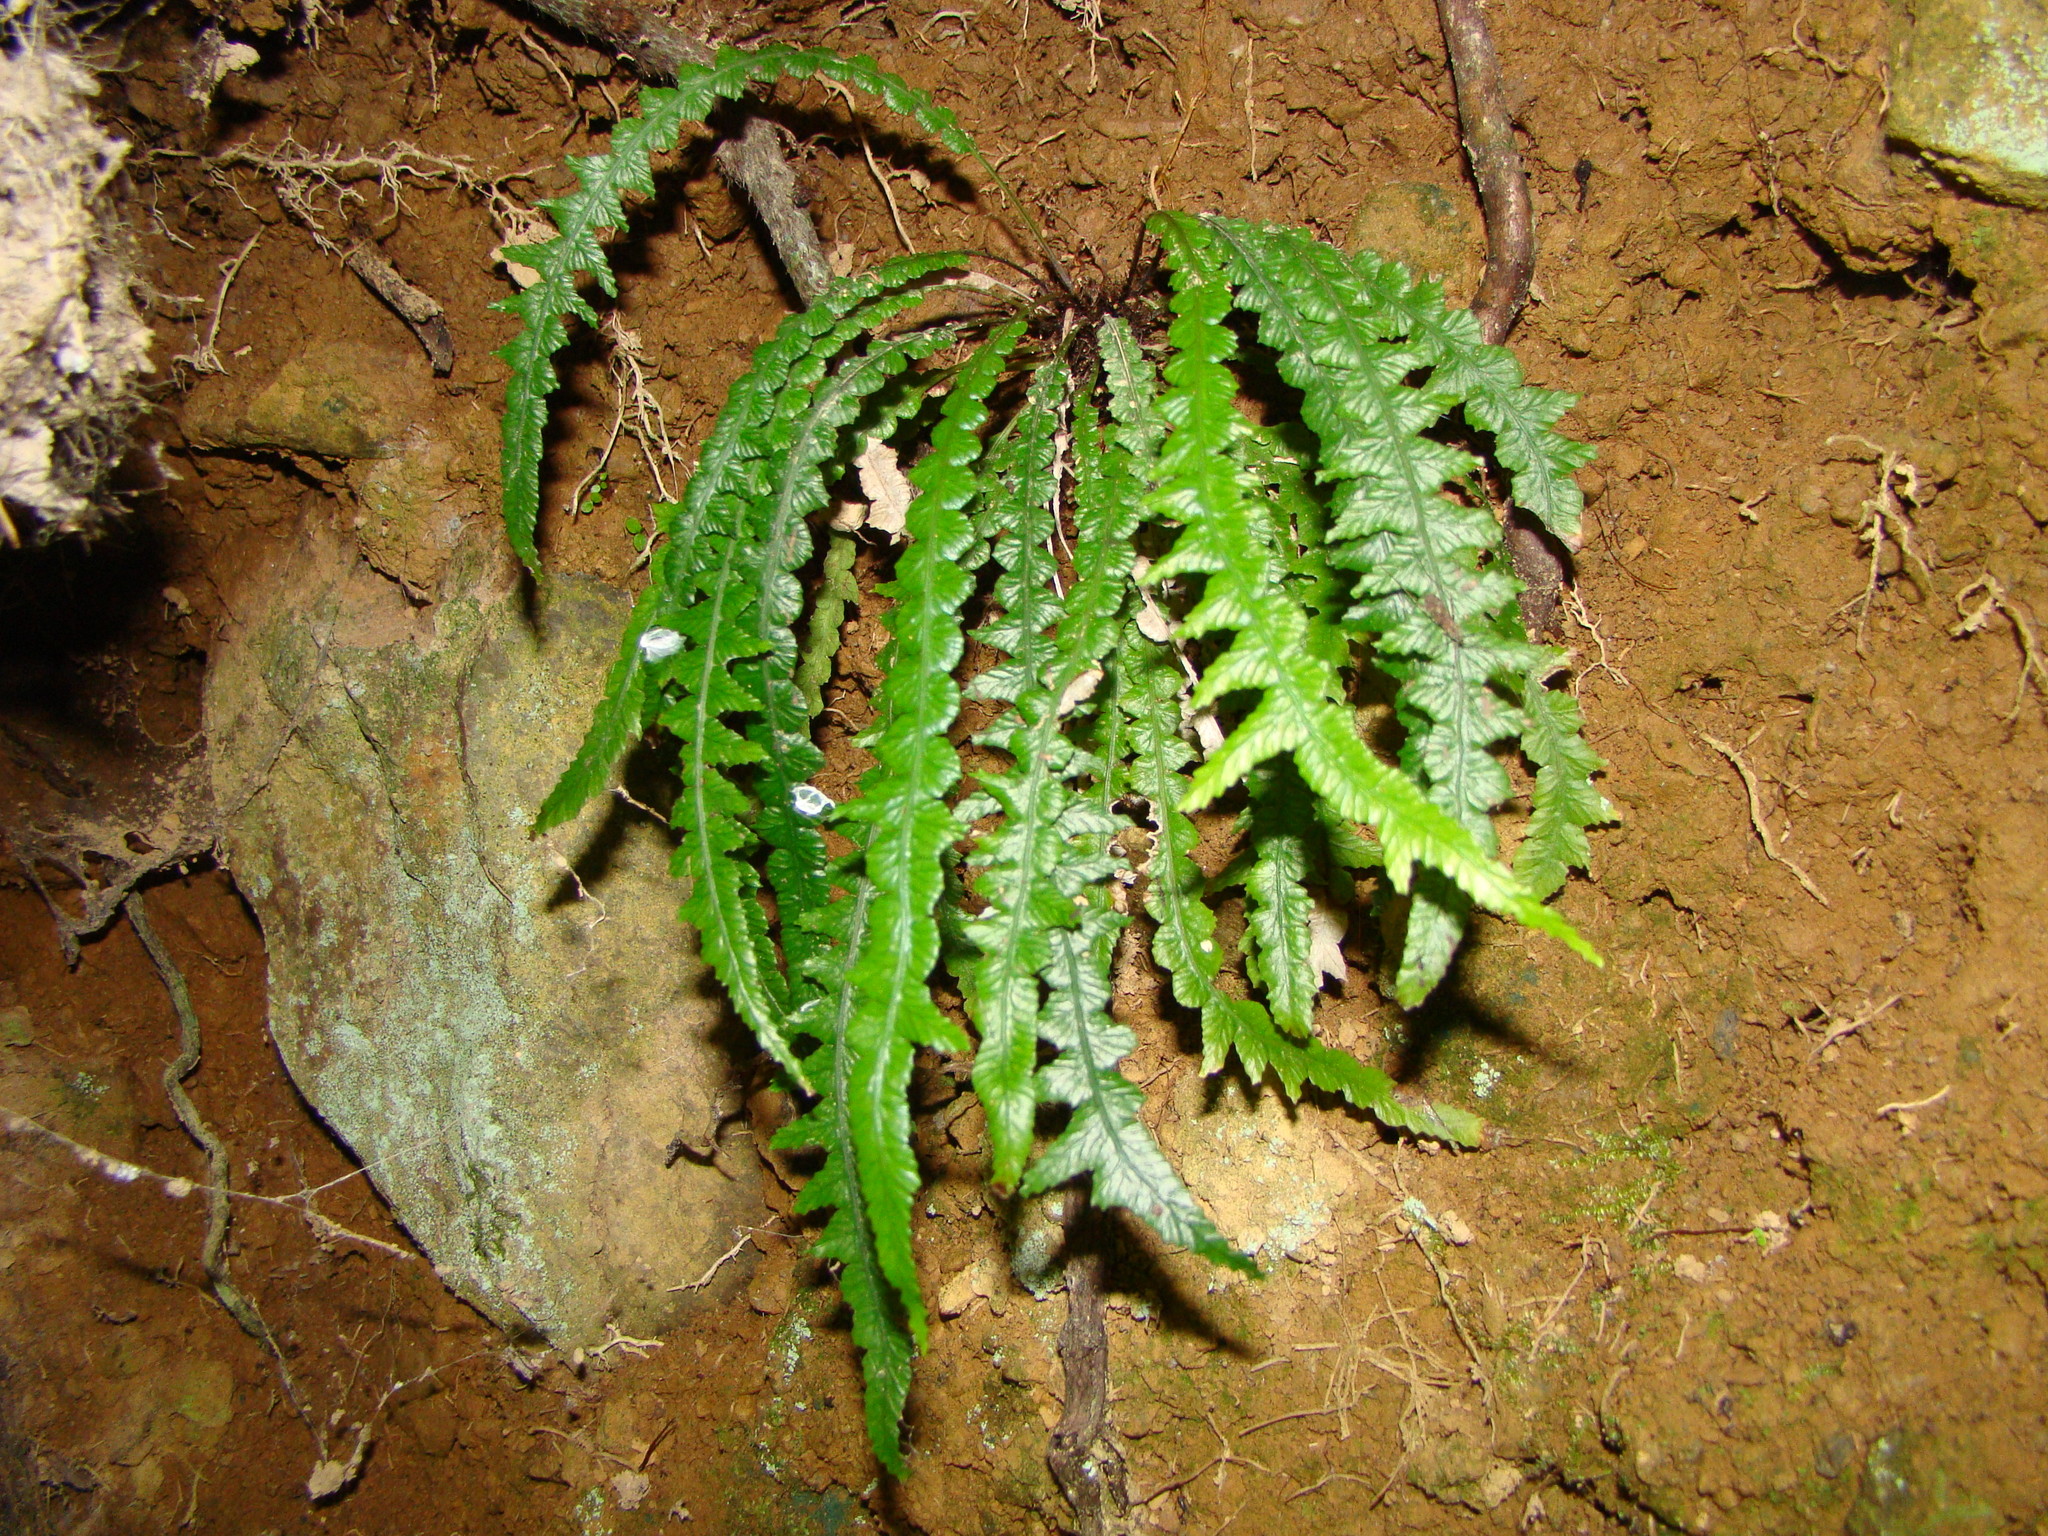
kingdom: Plantae
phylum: Tracheophyta
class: Polypodiopsida
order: Polypodiales
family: Blechnaceae
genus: Austroblechnum
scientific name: Austroblechnum membranaceum
